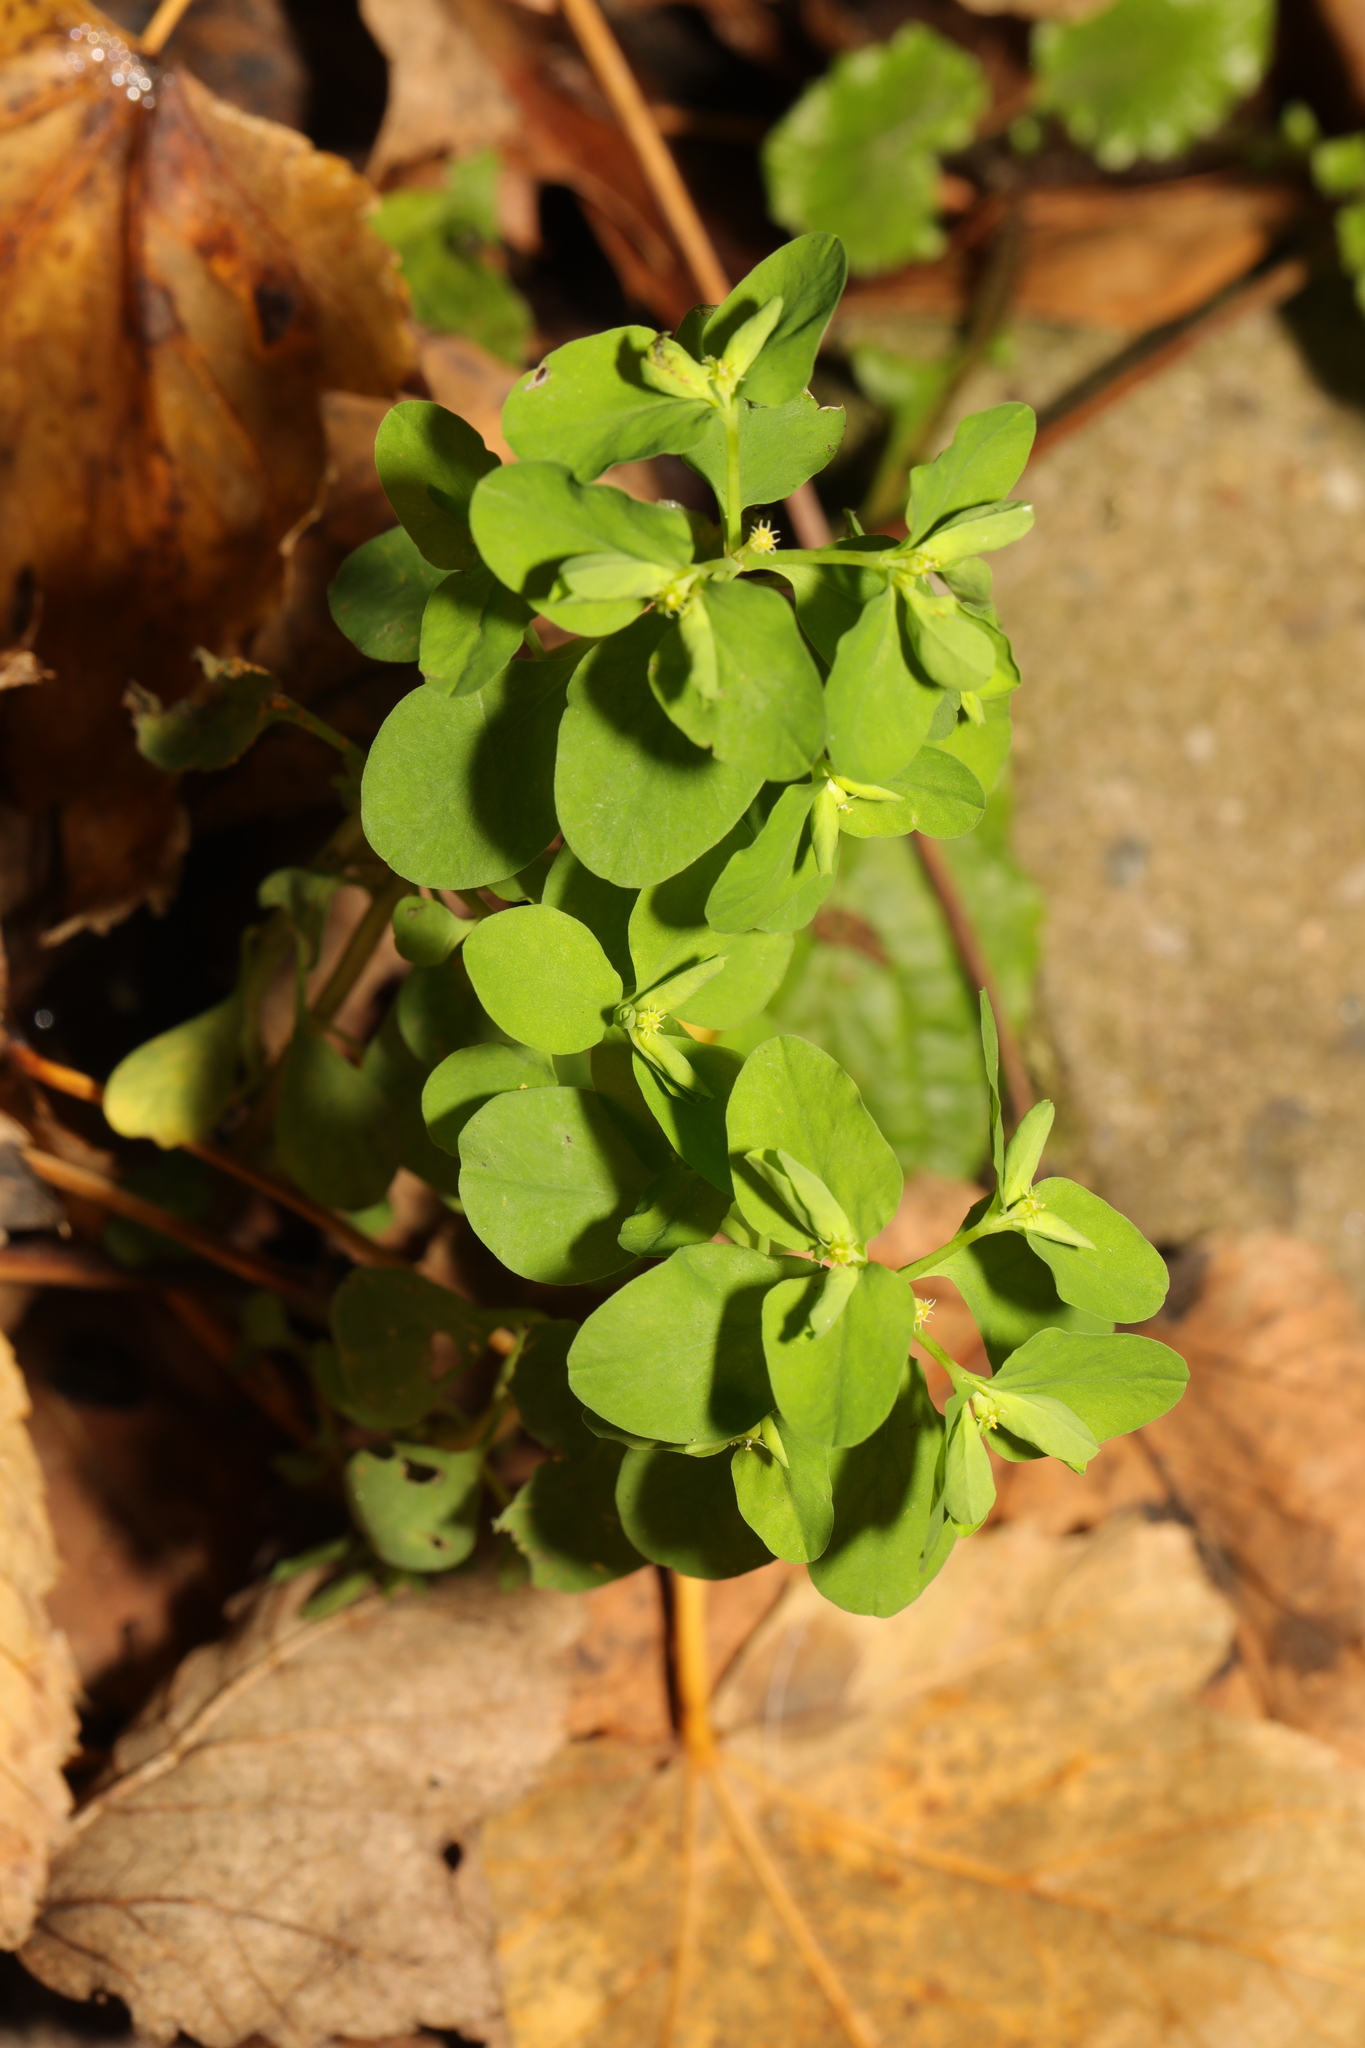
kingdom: Plantae
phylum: Tracheophyta
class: Magnoliopsida
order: Malpighiales
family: Euphorbiaceae
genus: Euphorbia
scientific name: Euphorbia peplus
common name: Petty spurge
